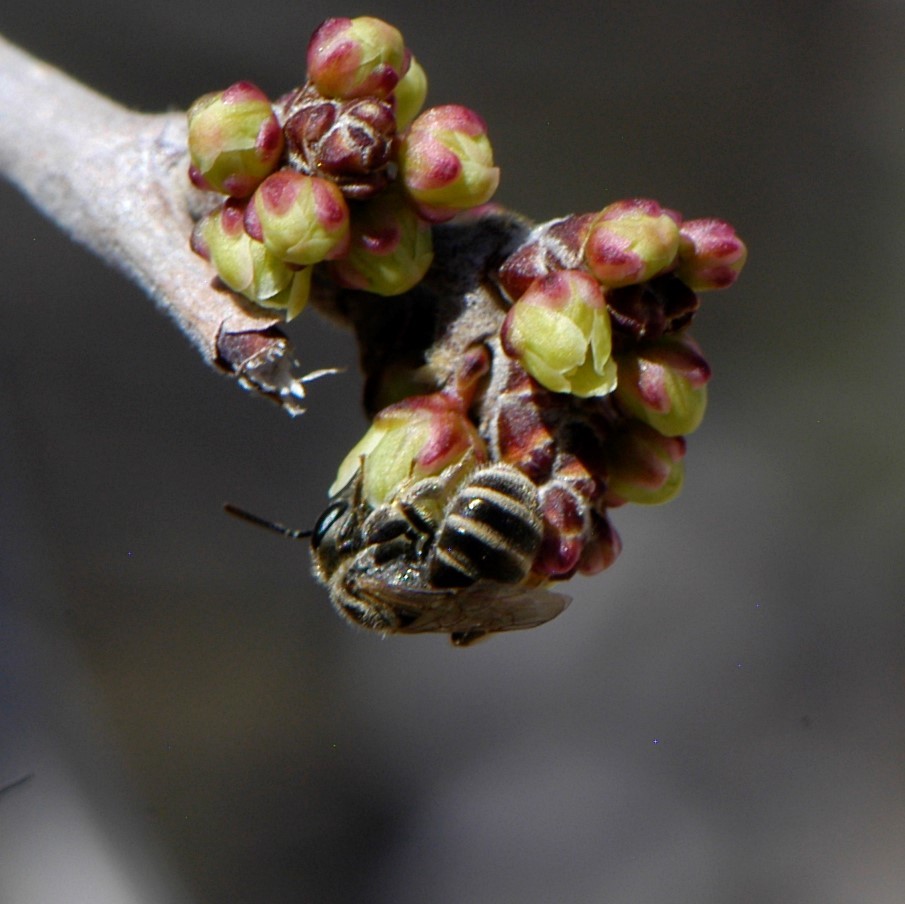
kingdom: Animalia
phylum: Arthropoda
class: Insecta
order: Hymenoptera
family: Halictidae
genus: Halictus
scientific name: Halictus tripartitus
